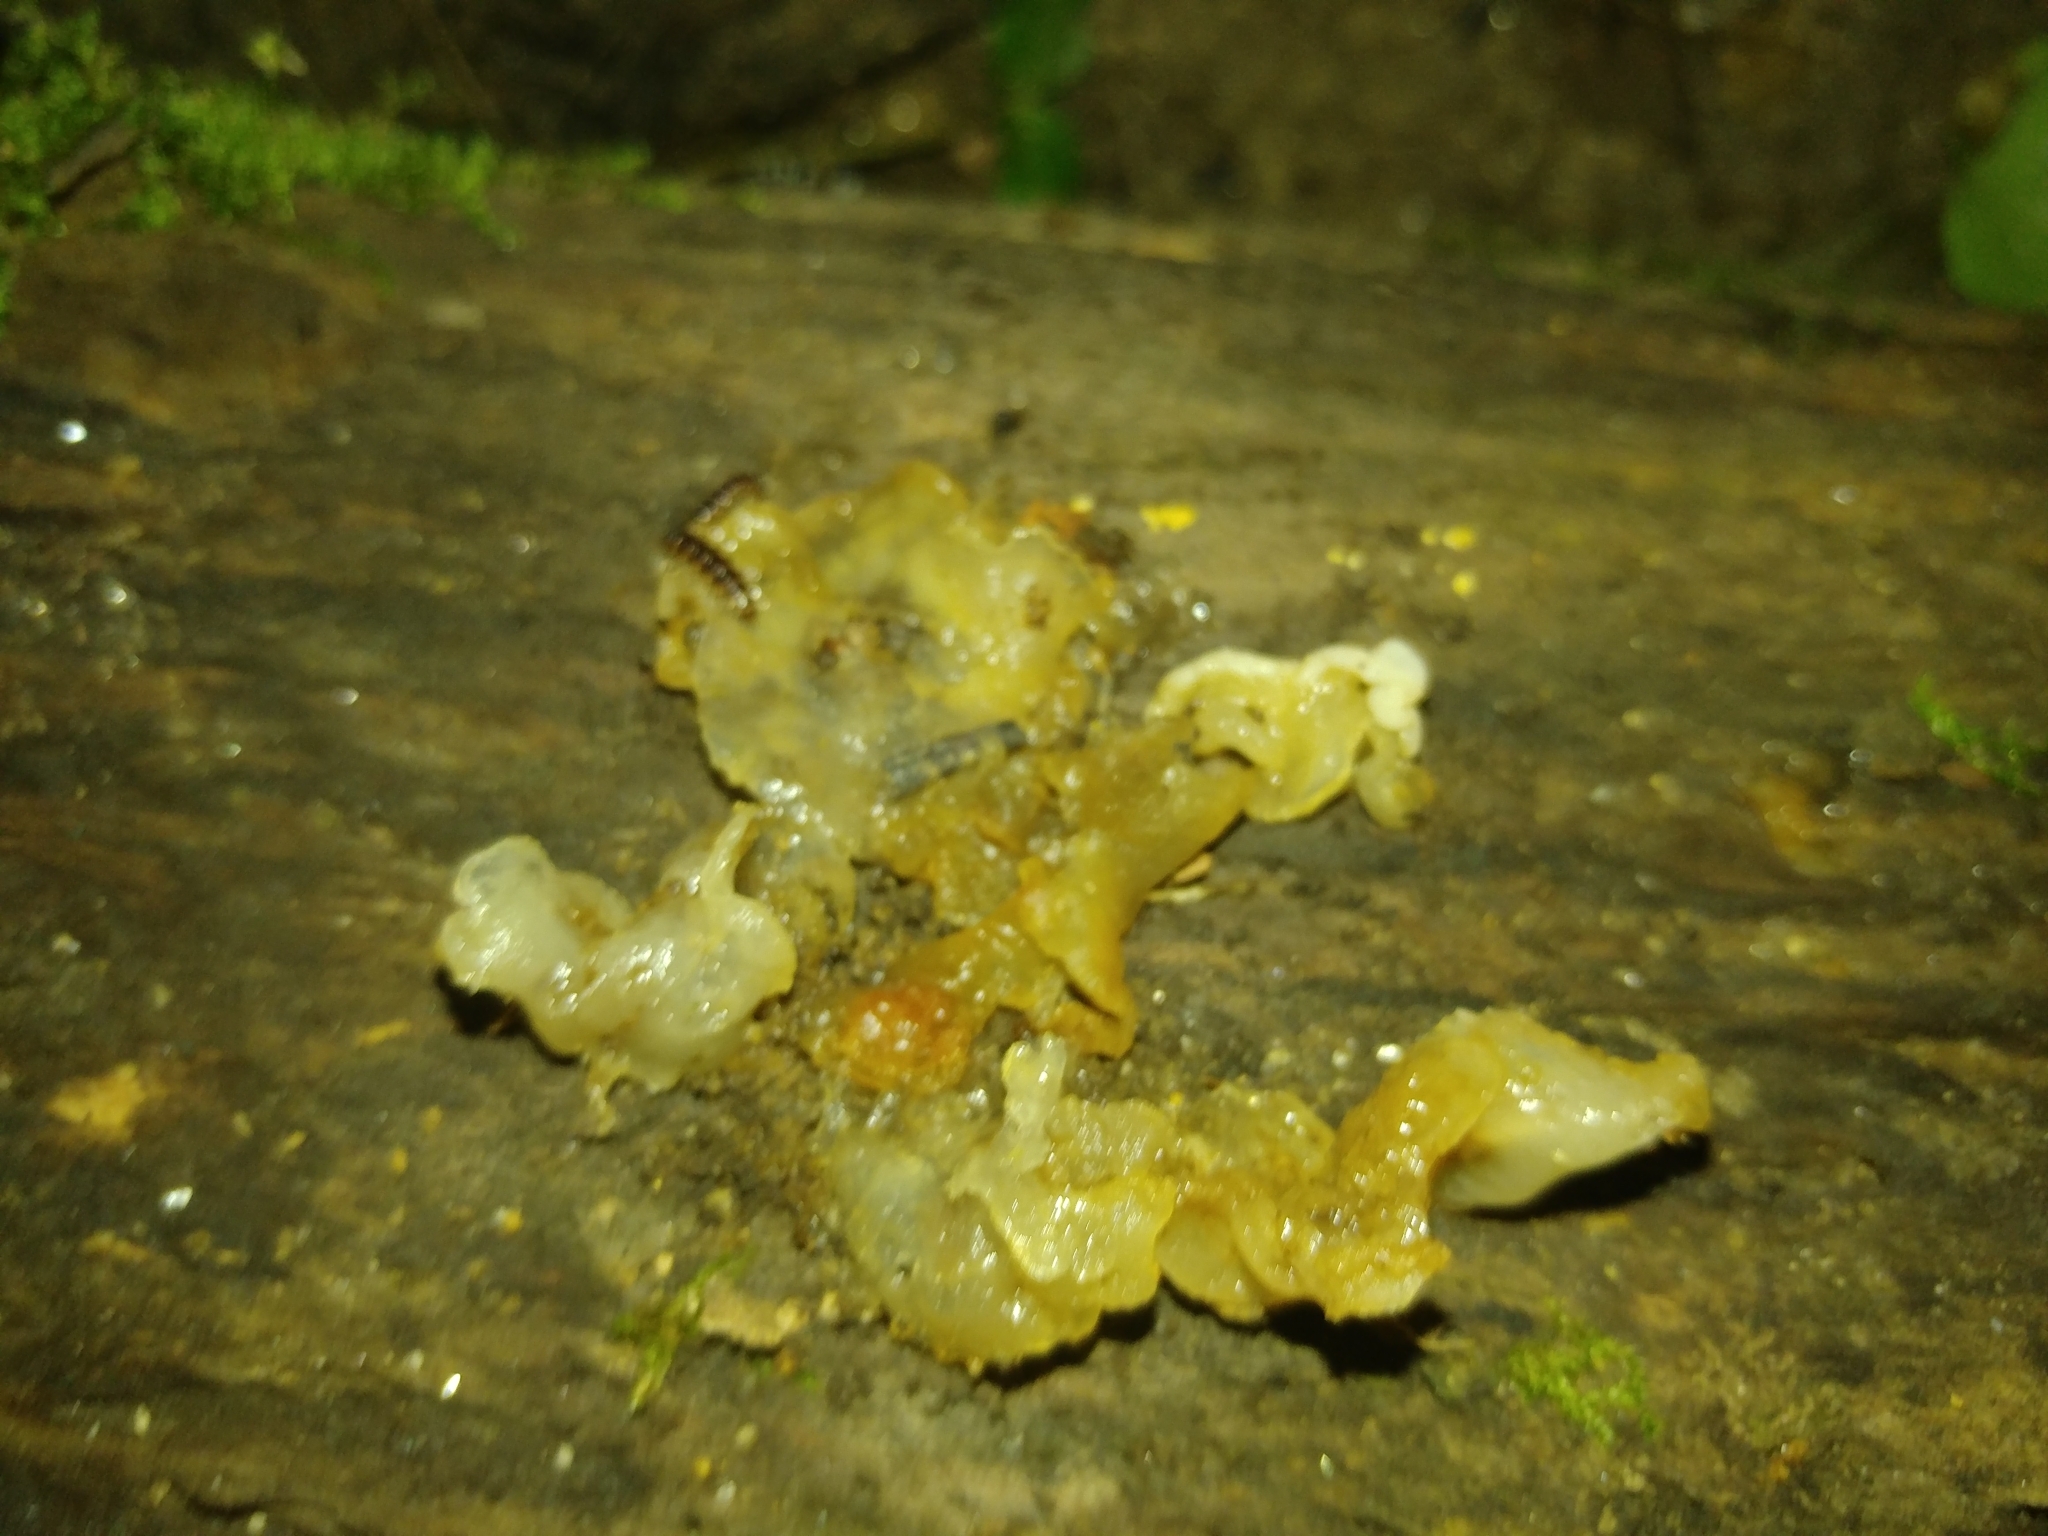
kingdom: Fungi
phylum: Basidiomycota
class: Agaricomycetes
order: Auriculariales
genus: Ductifera
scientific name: Ductifera pululahuana
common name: White jelly fungus
